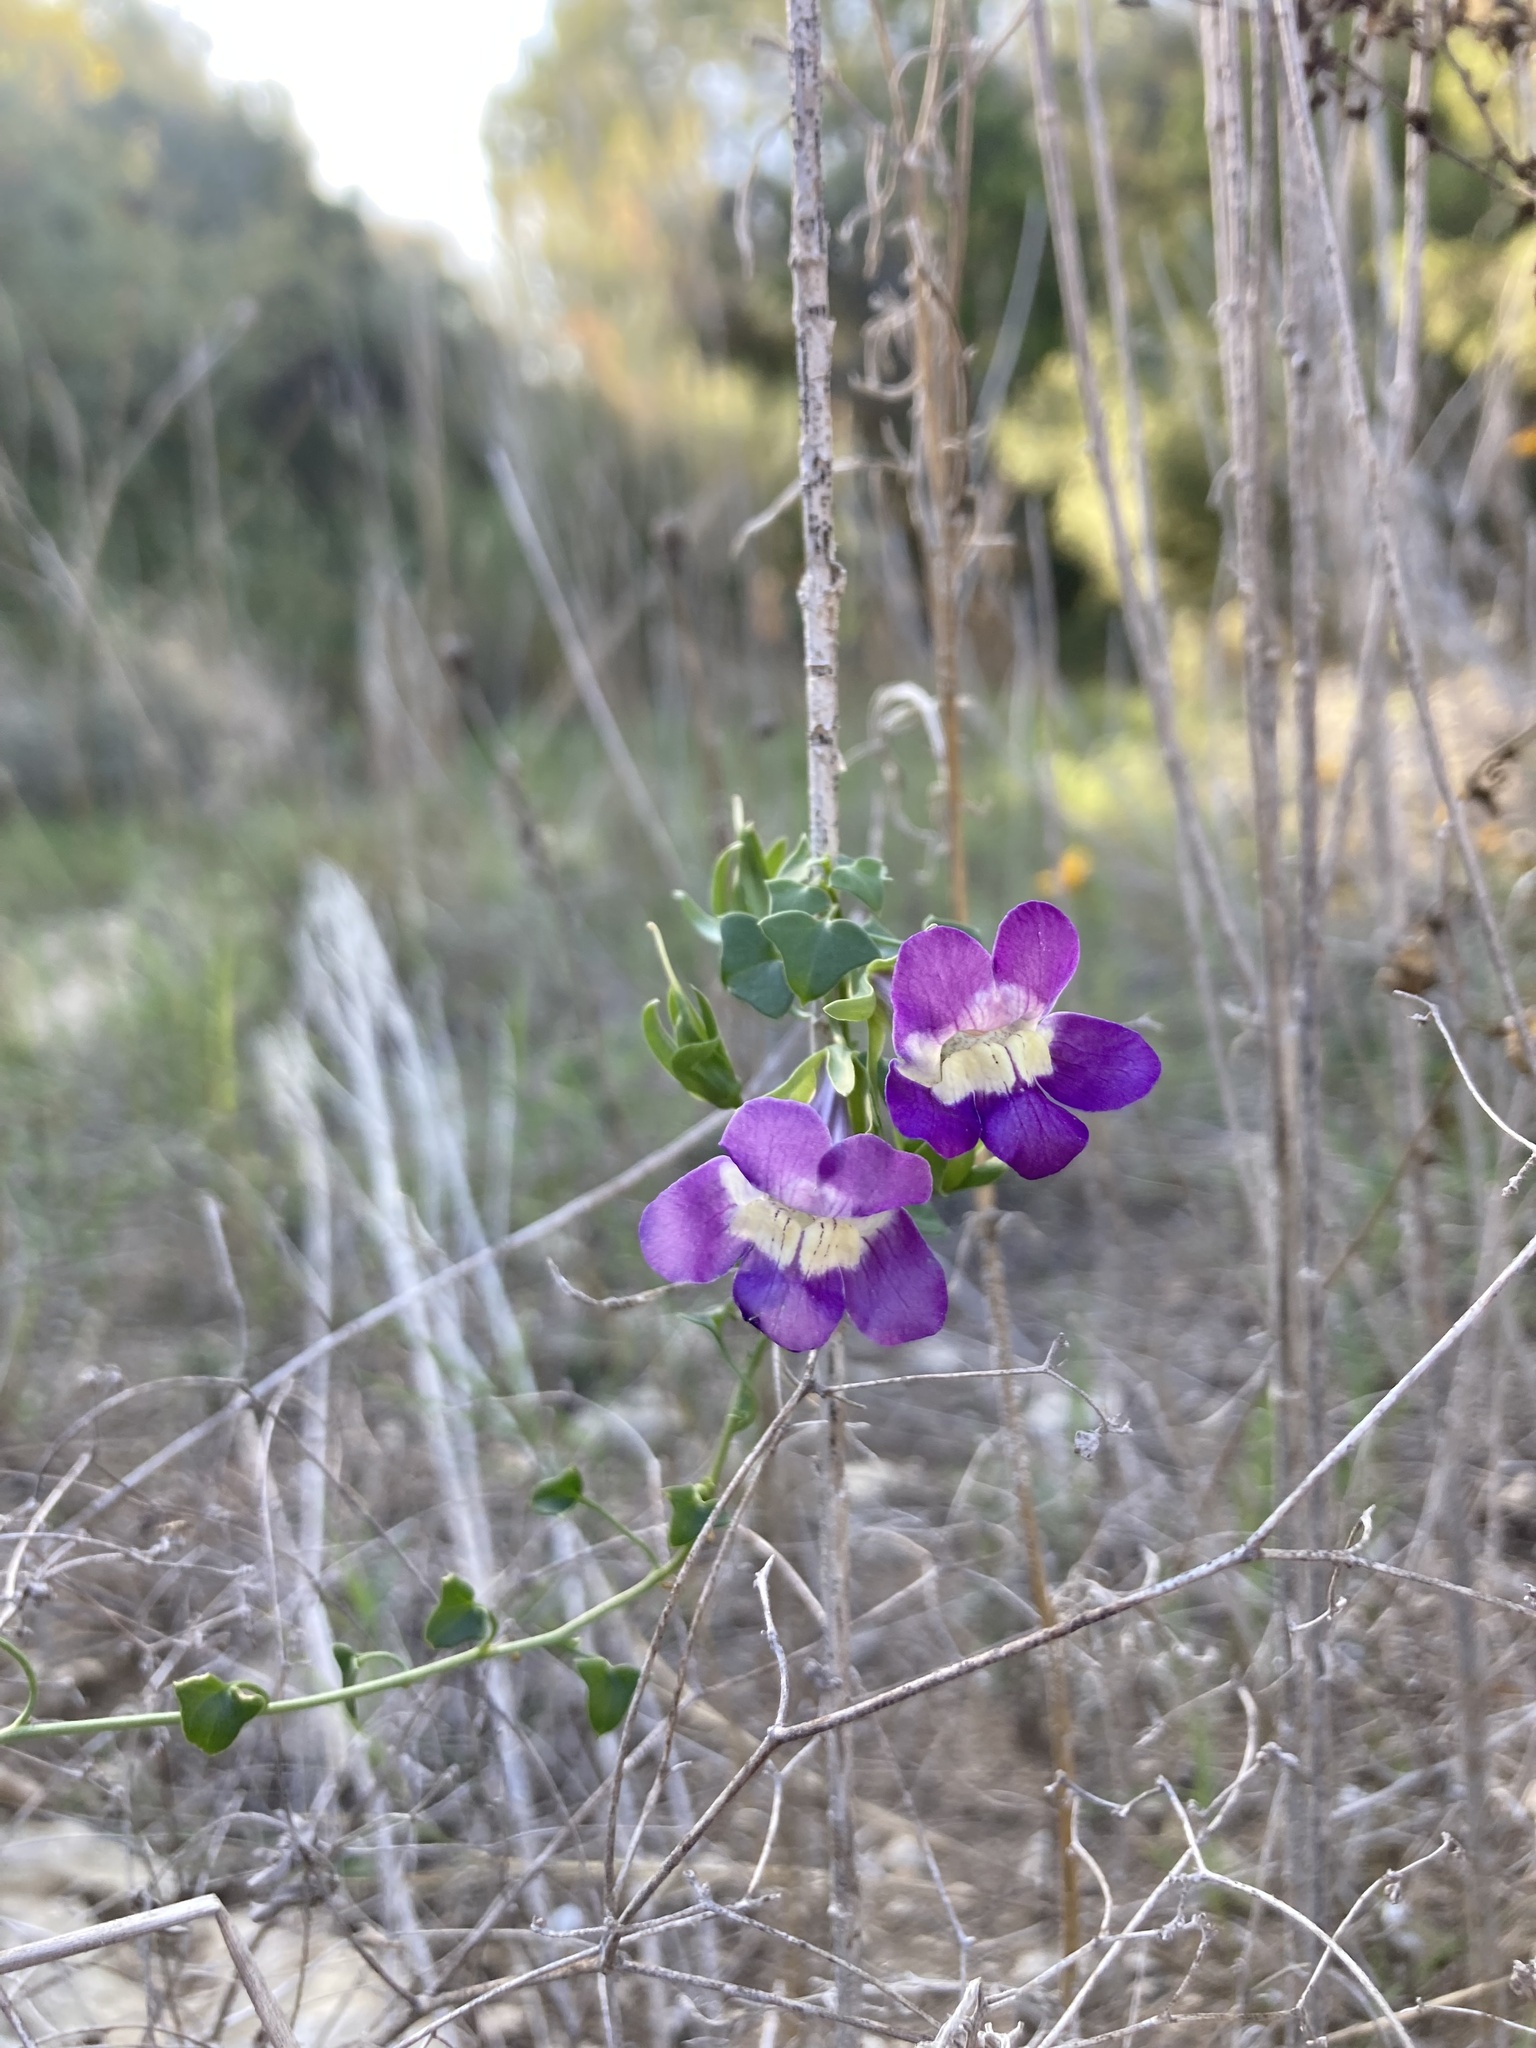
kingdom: Plantae
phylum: Tracheophyta
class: Magnoliopsida
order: Lamiales
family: Plantaginaceae
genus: Maurandella
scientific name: Maurandella antirrhiniflora
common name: Violet twining-snapdragon
